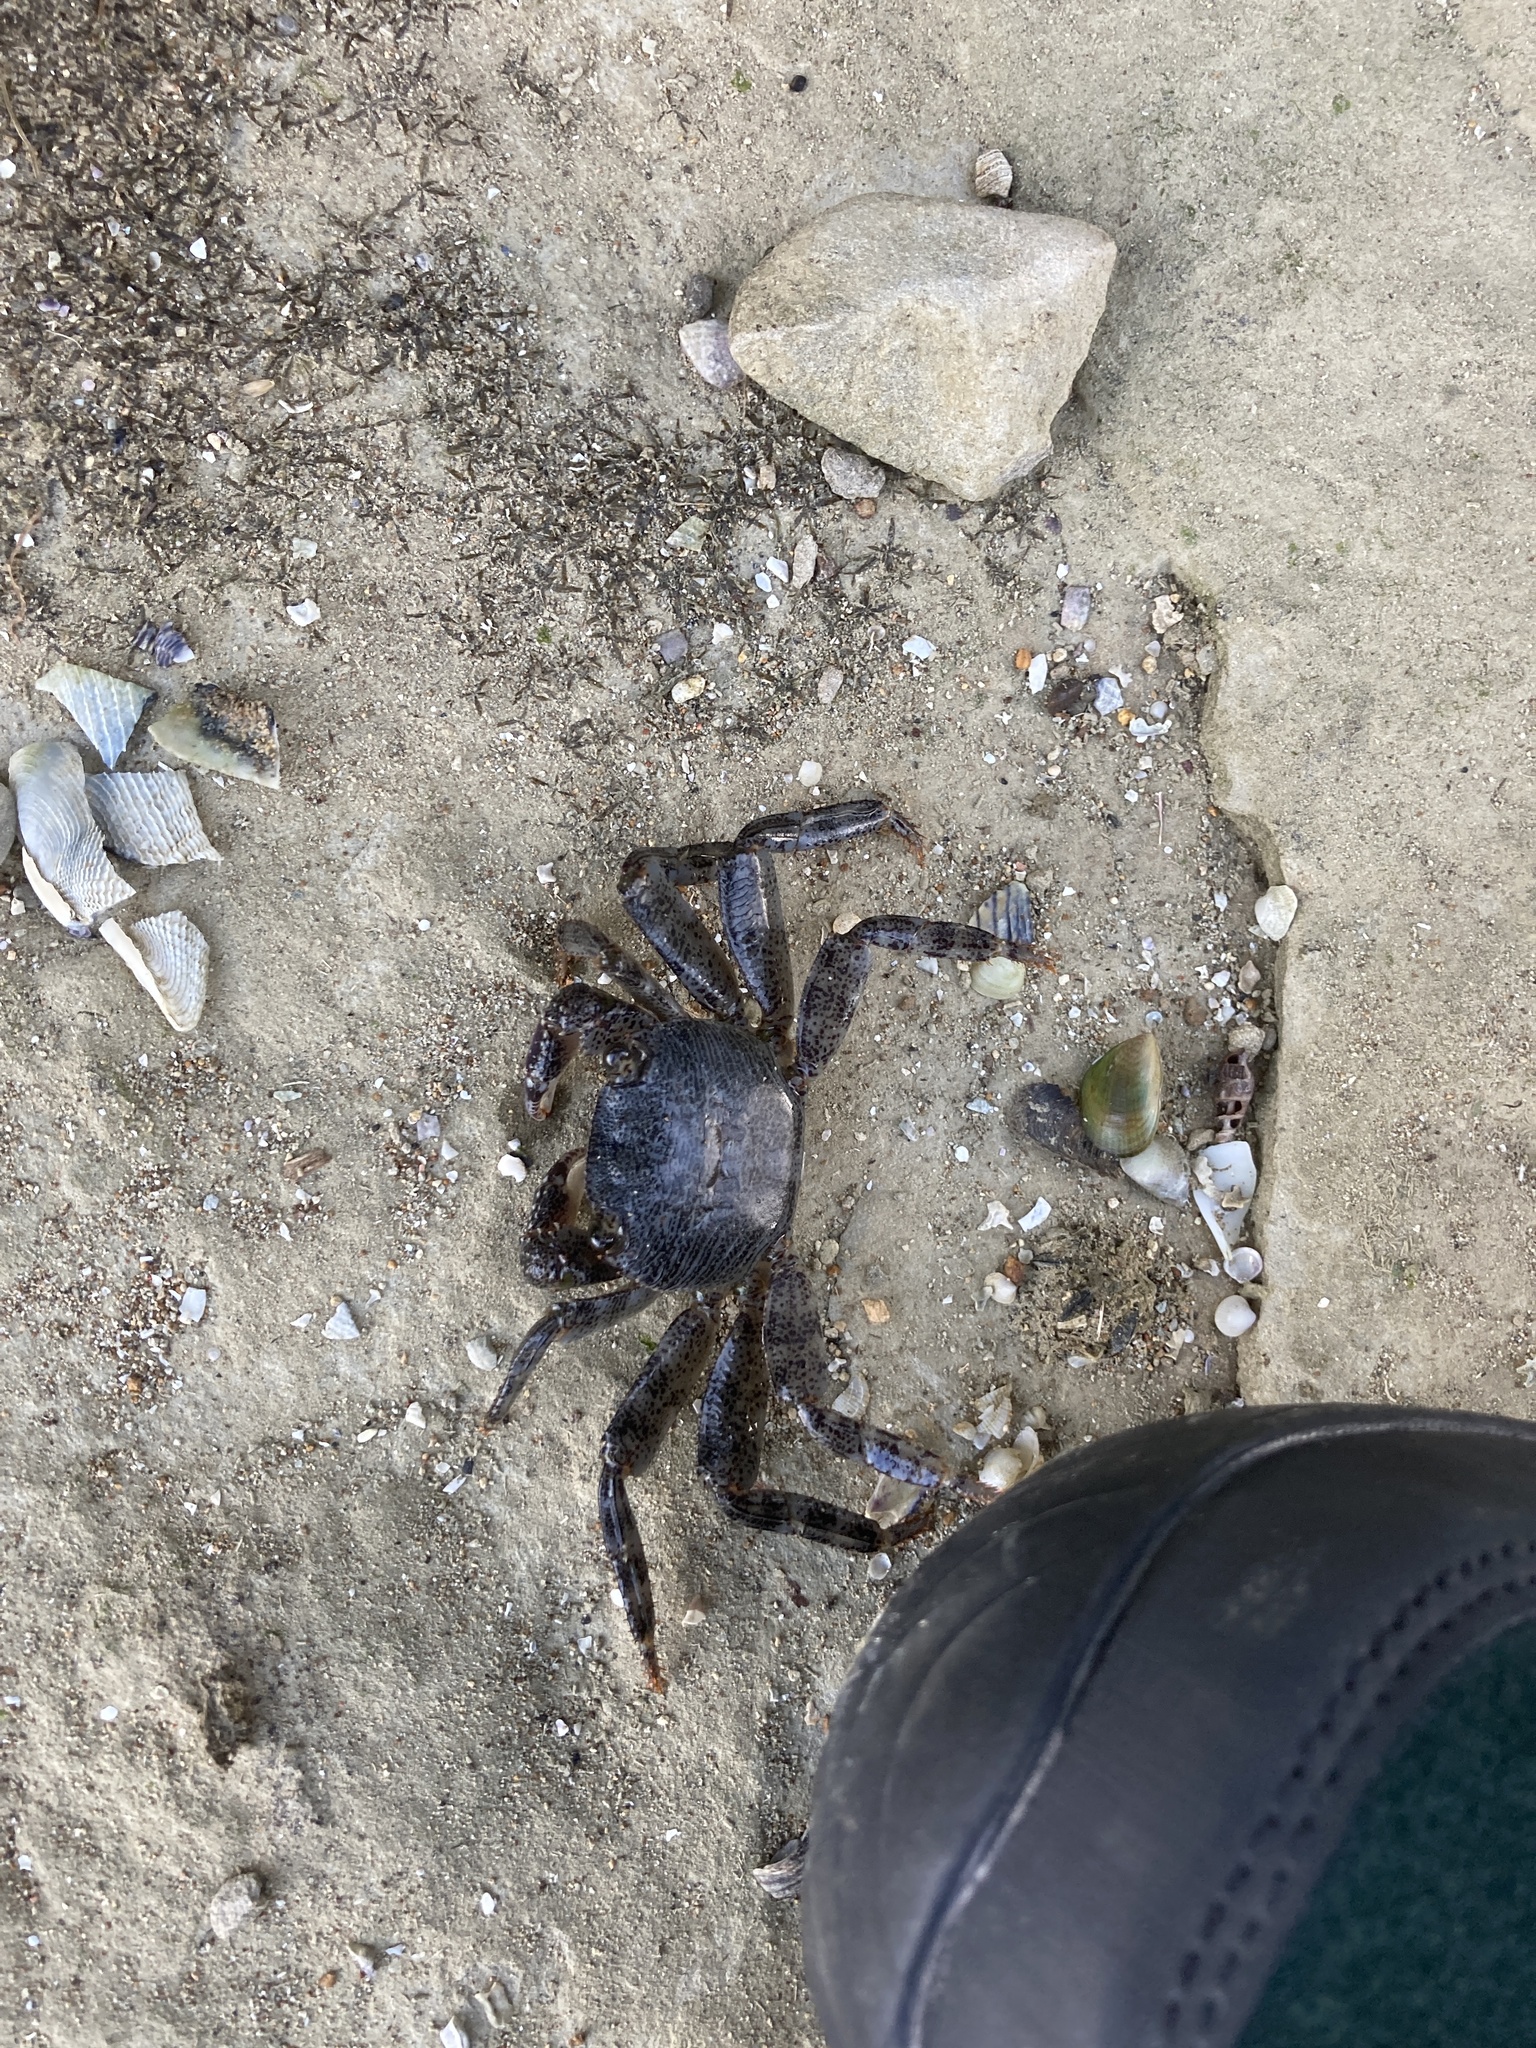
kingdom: Animalia
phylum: Arthropoda
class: Malacostraca
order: Decapoda
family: Grapsidae
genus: Leptograpsus
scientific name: Leptograpsus variegatus
